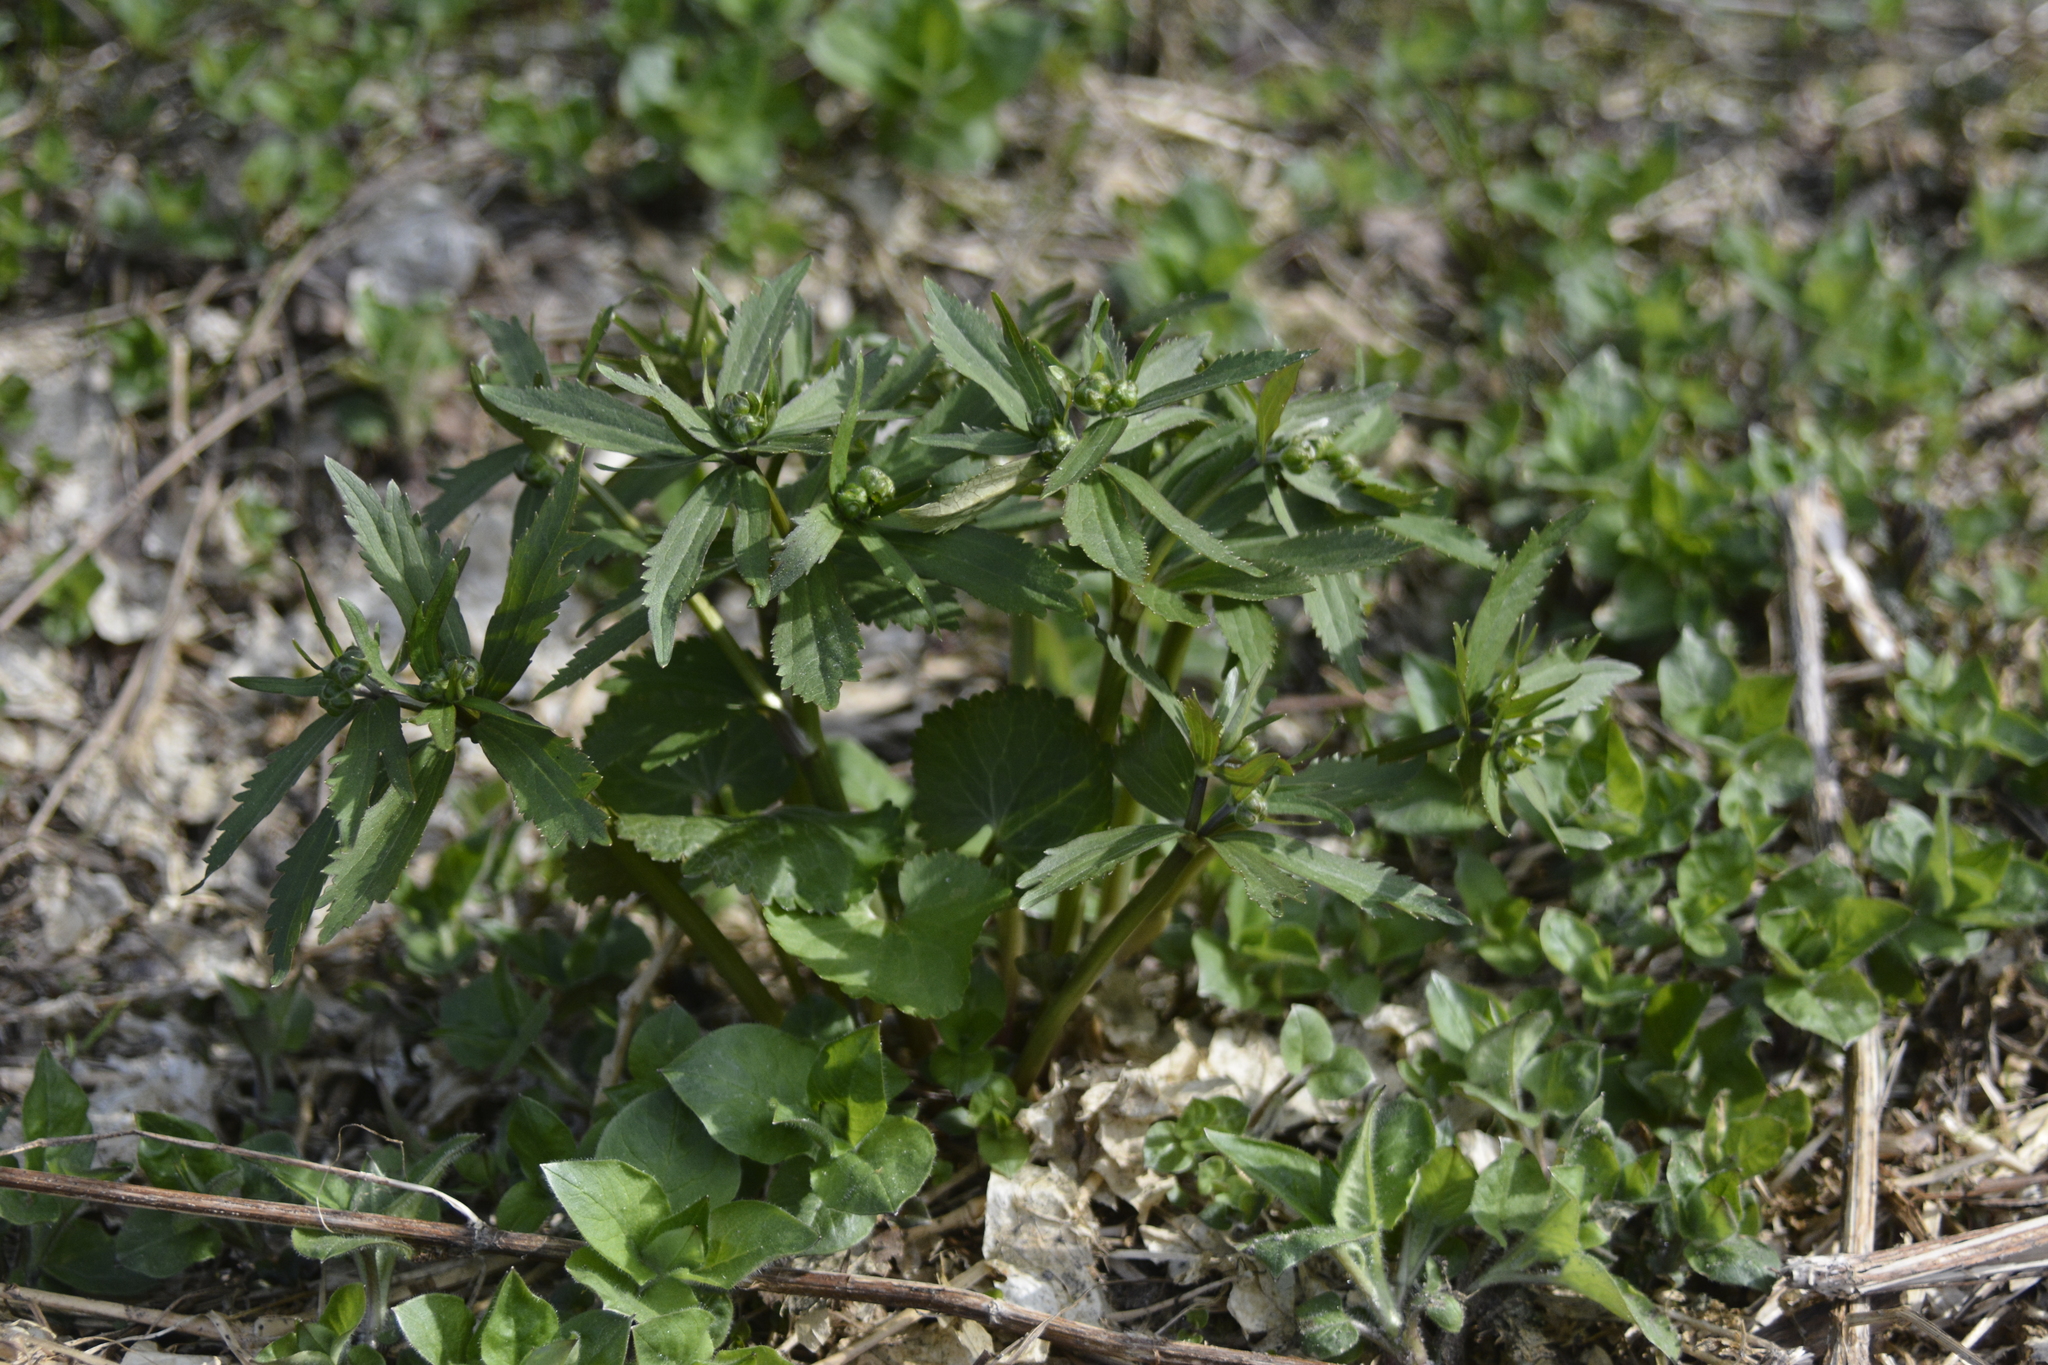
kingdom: Plantae
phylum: Tracheophyta
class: Magnoliopsida
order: Ranunculales
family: Ranunculaceae
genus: Ranunculus
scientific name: Ranunculus cassubicus
